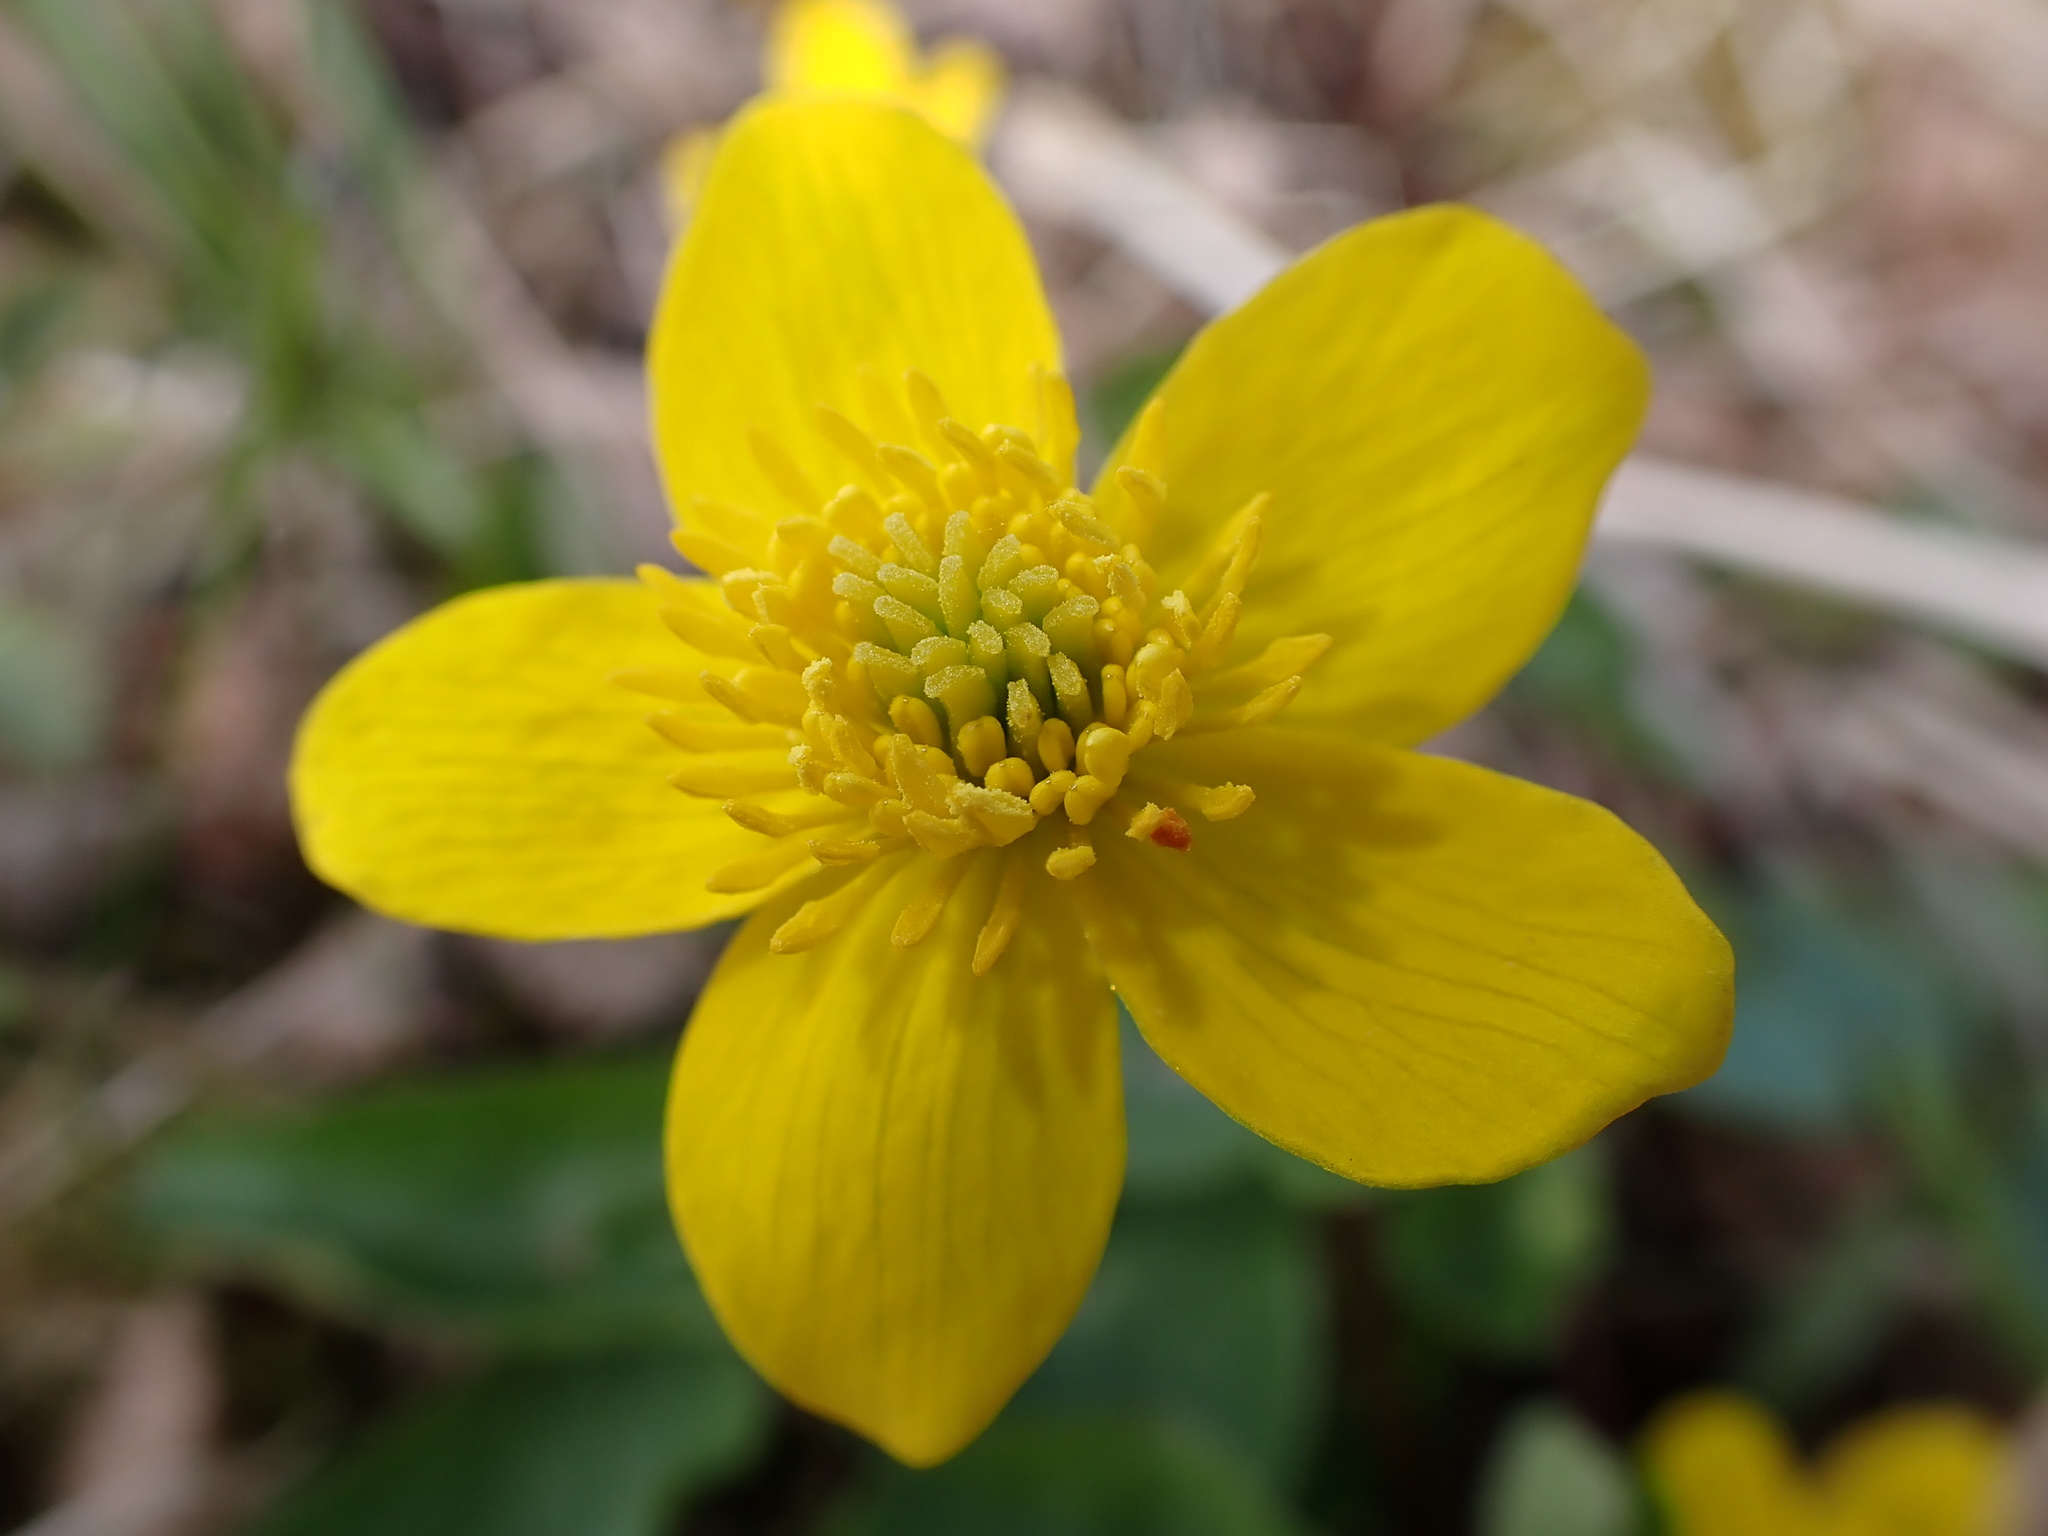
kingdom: Plantae
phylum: Tracheophyta
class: Magnoliopsida
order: Ranunculales
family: Ranunculaceae
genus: Caltha
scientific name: Caltha palustris
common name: Marsh marigold
